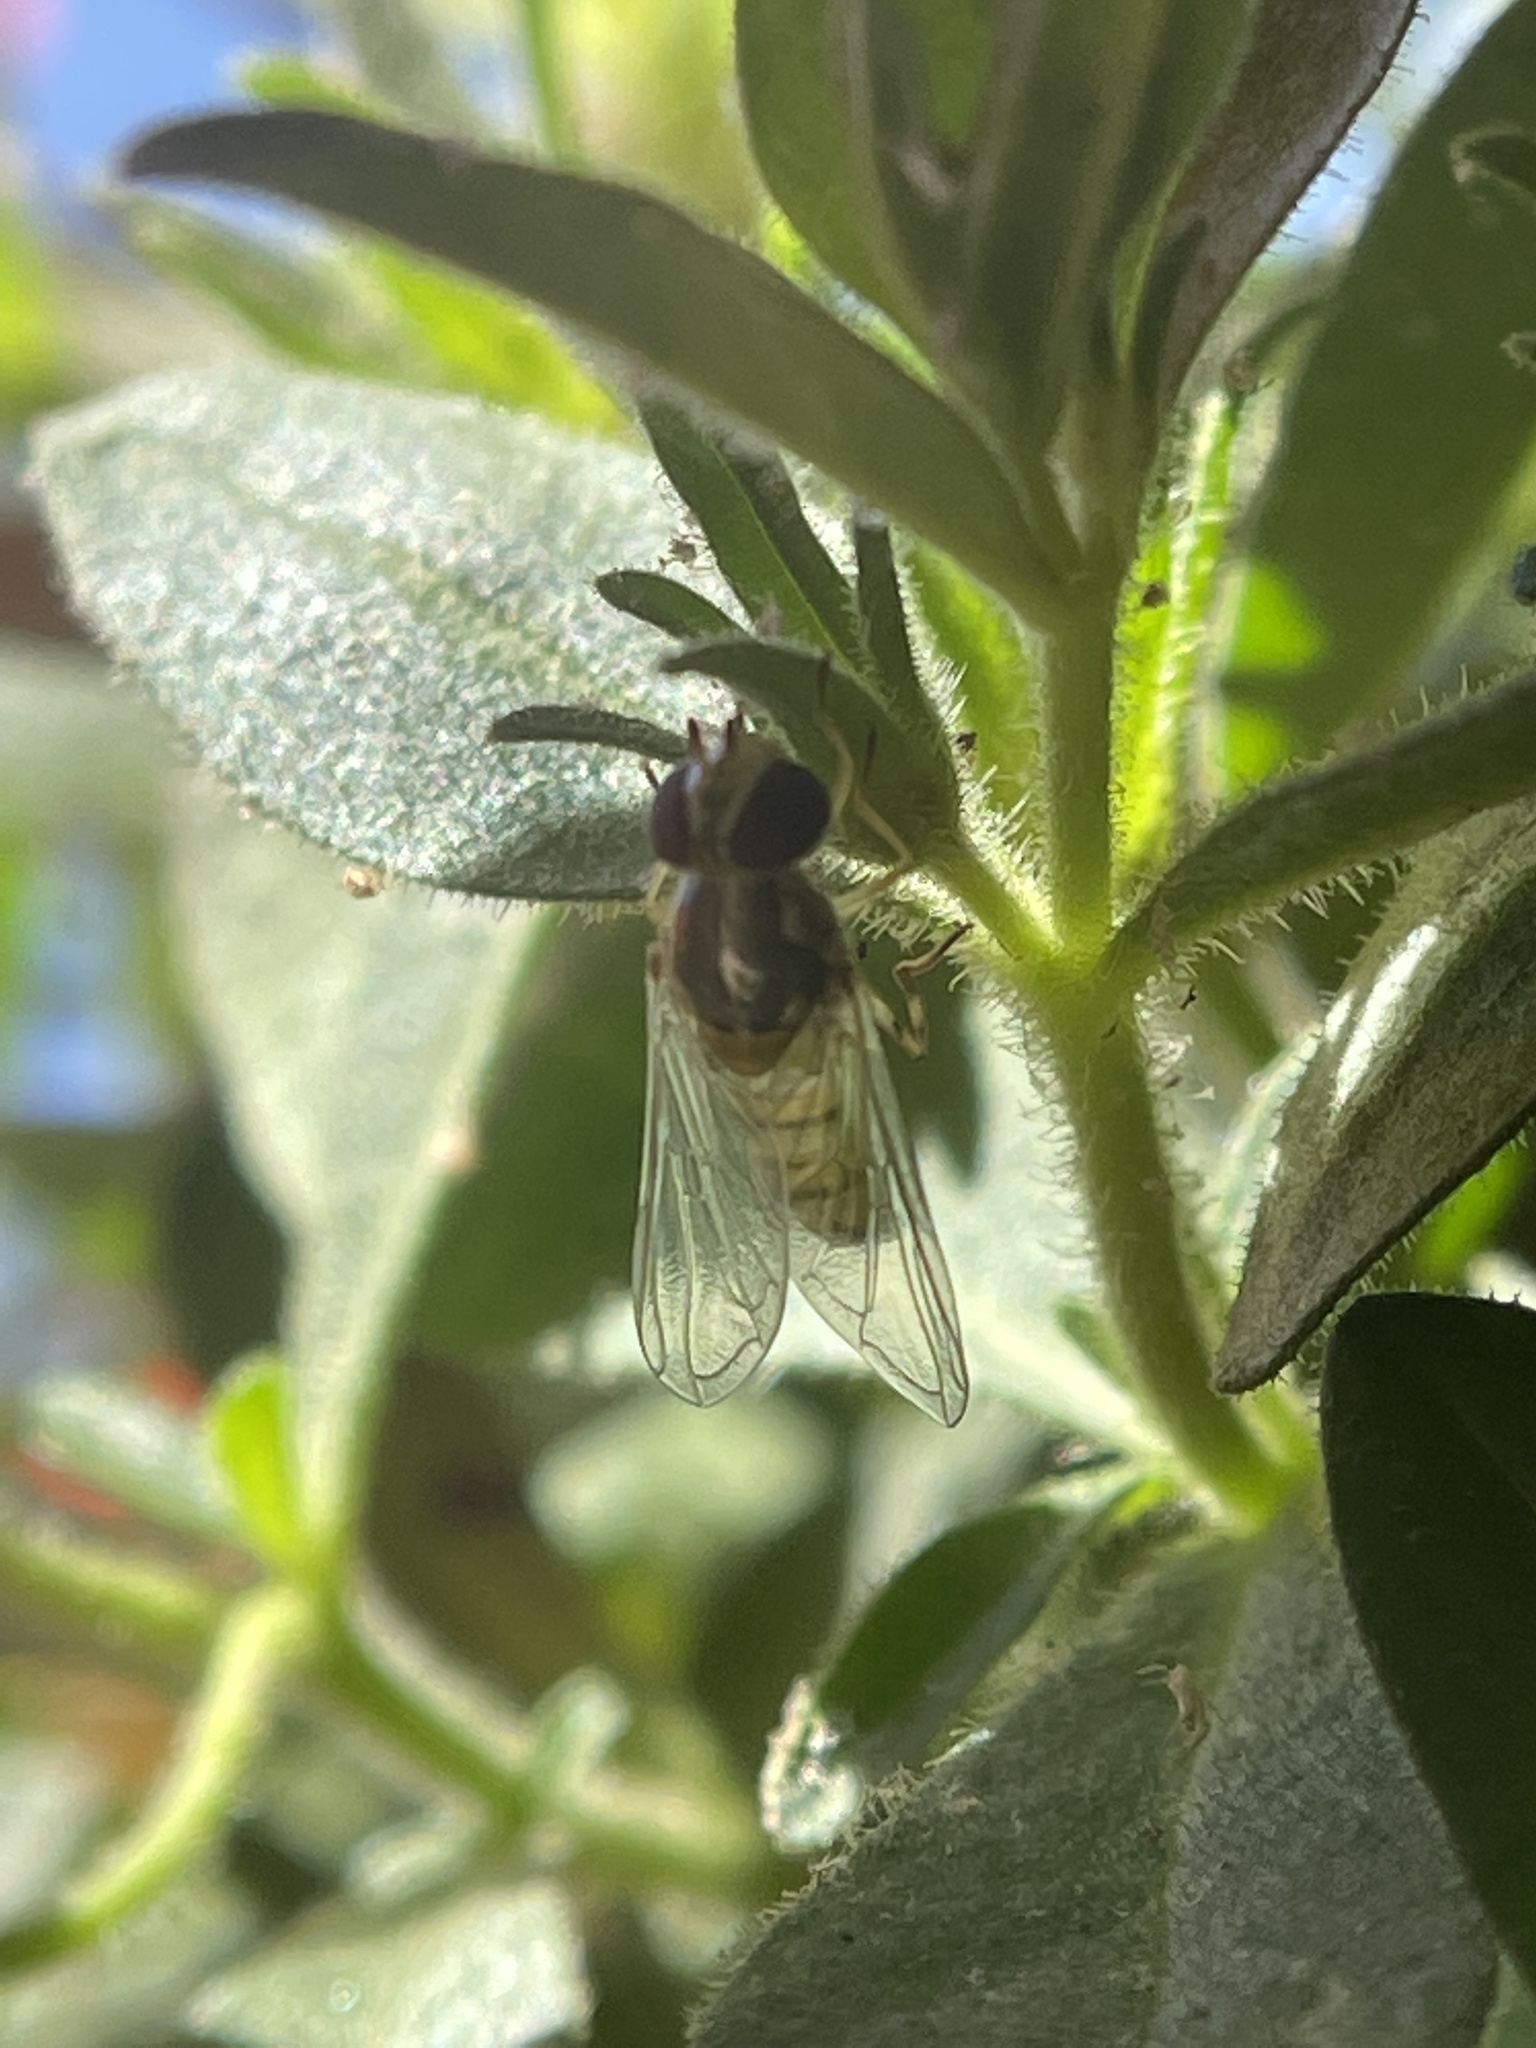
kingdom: Animalia
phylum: Arthropoda
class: Insecta
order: Diptera
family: Syrphidae
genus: Allograpta
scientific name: Allograpta obliqua
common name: Common oblique syrphid
